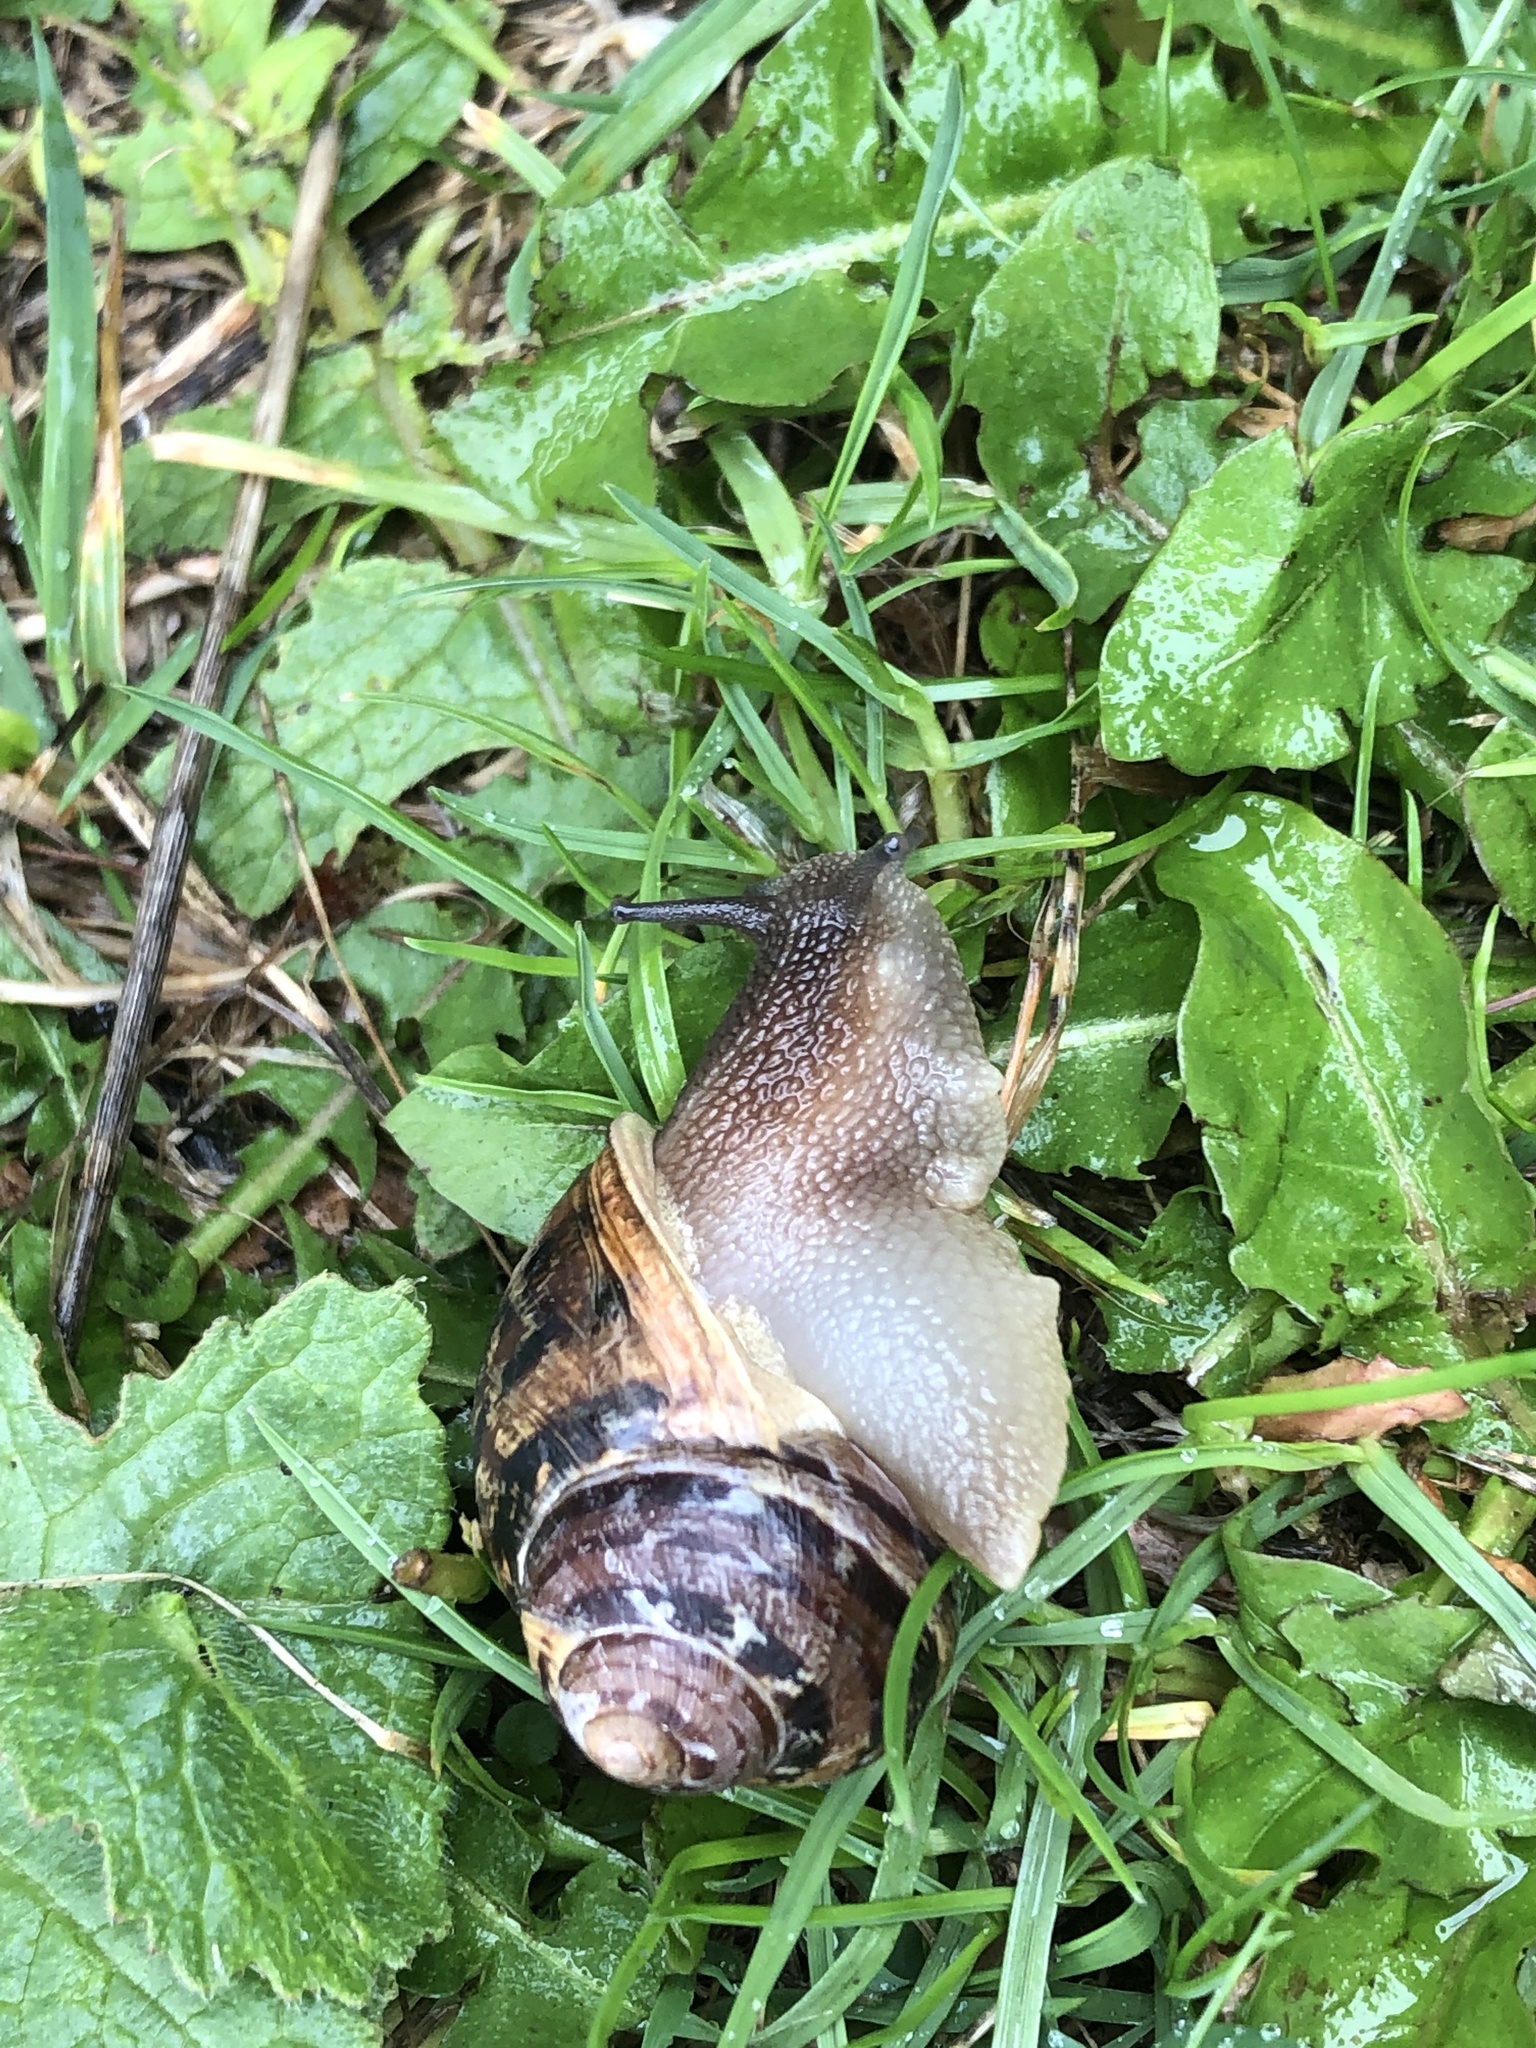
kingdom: Animalia
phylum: Mollusca
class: Gastropoda
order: Stylommatophora
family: Helicidae
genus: Cornu
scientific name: Cornu aspersum
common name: Brown garden snail
